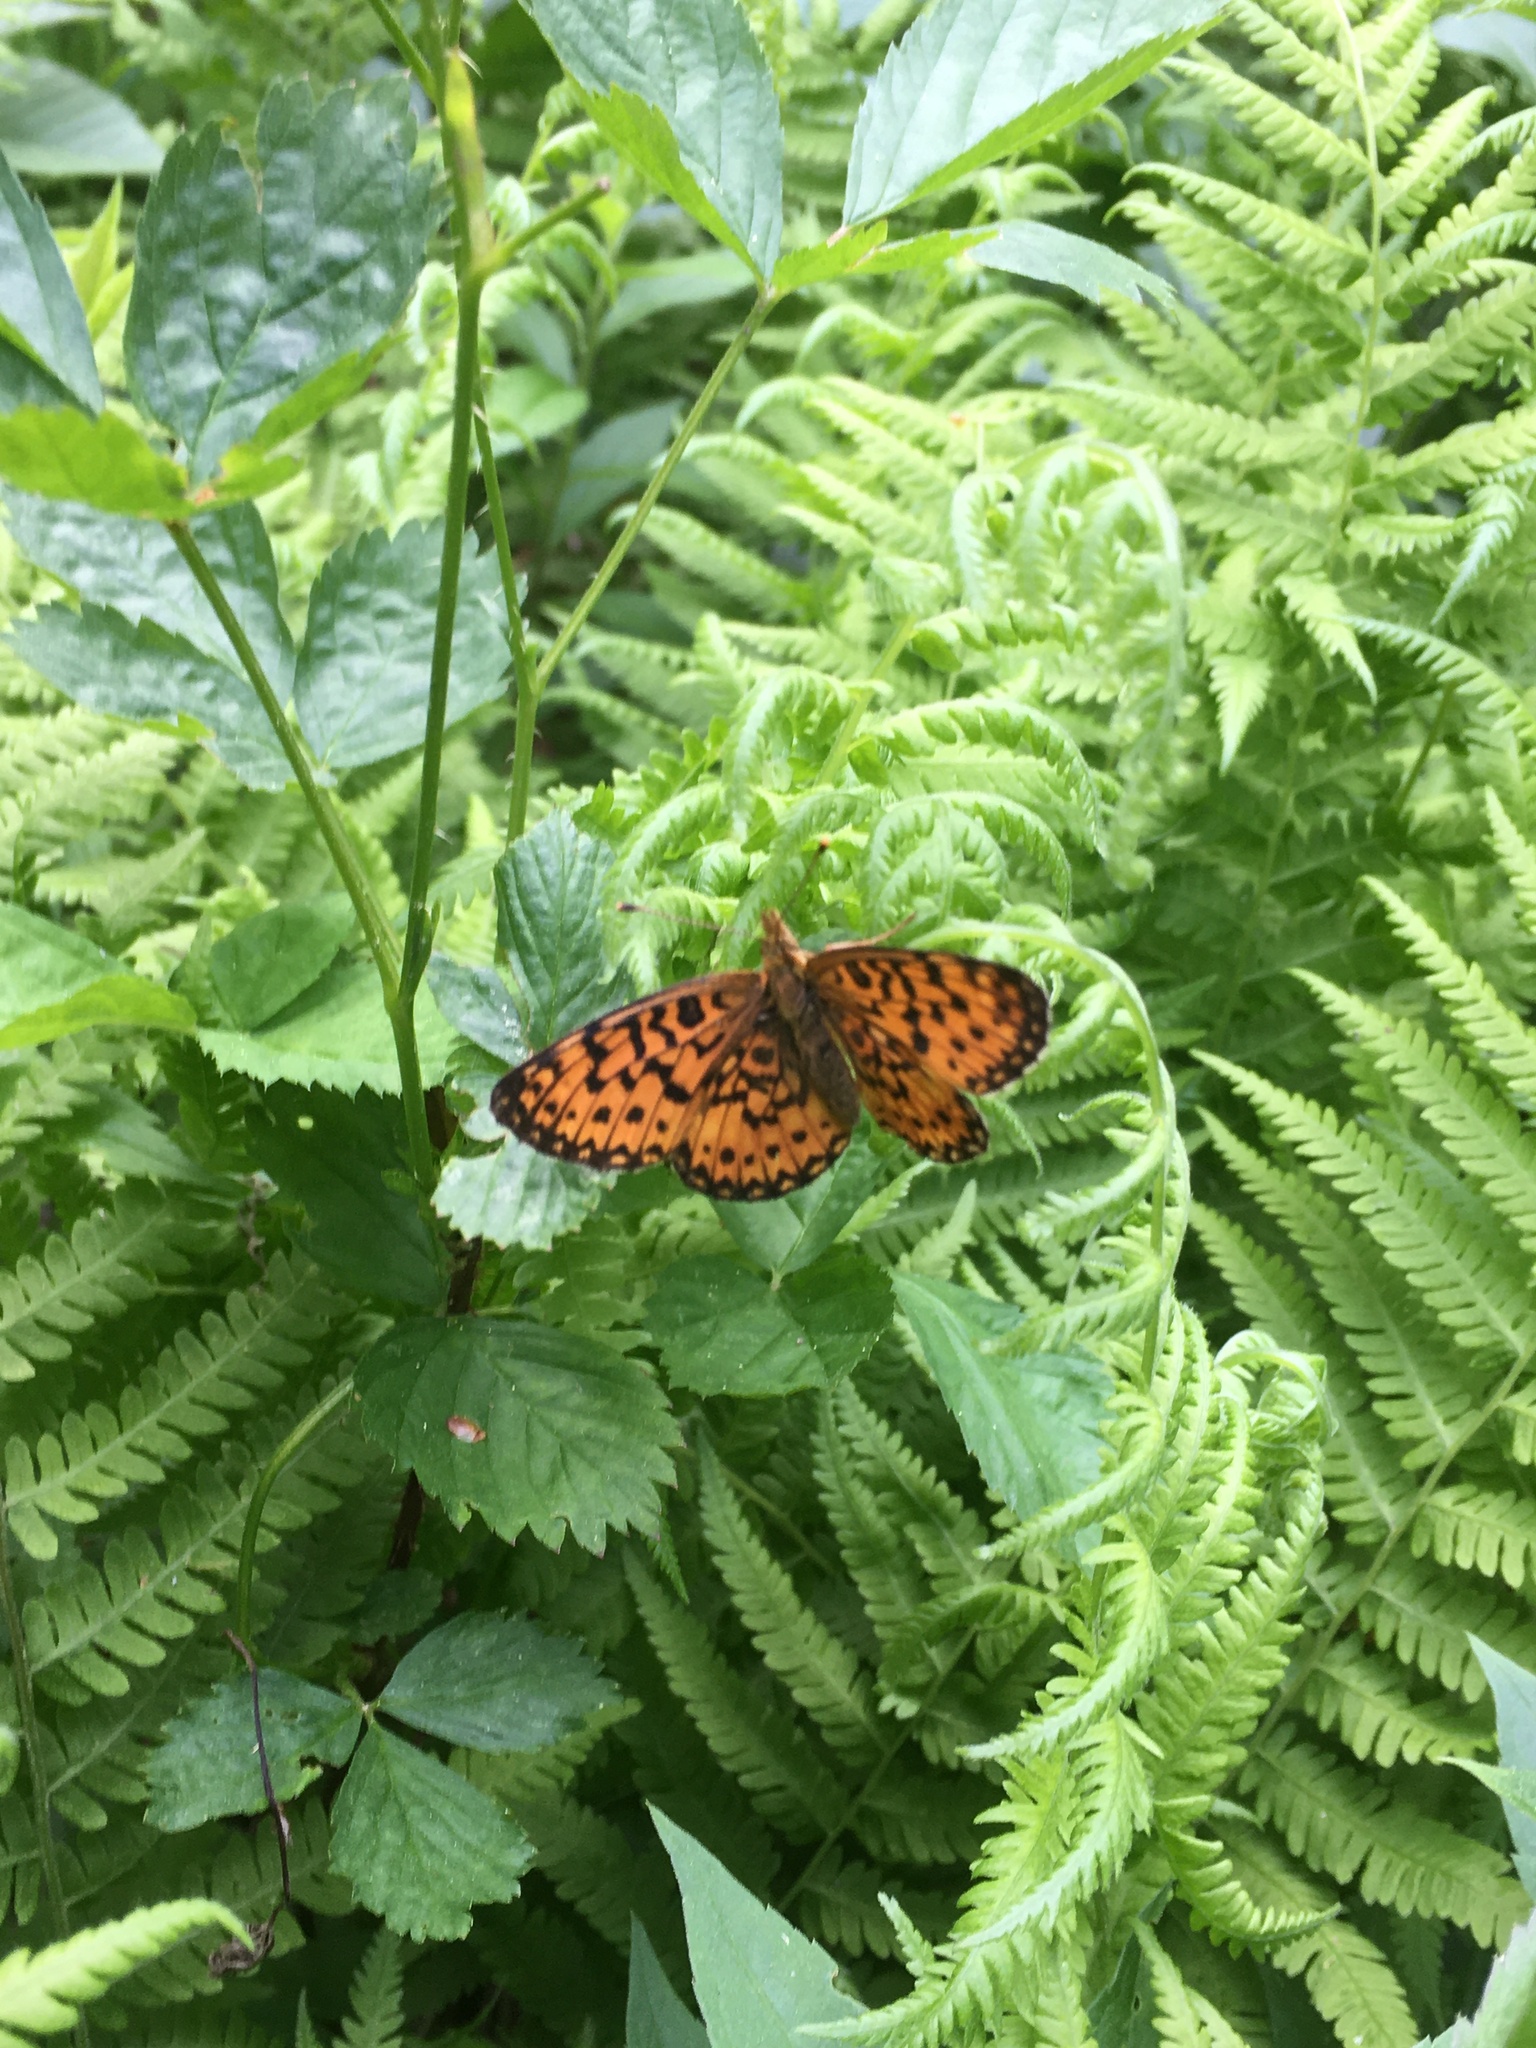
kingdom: Animalia
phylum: Arthropoda
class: Insecta
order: Lepidoptera
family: Nymphalidae
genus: Boloria
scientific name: Boloria
